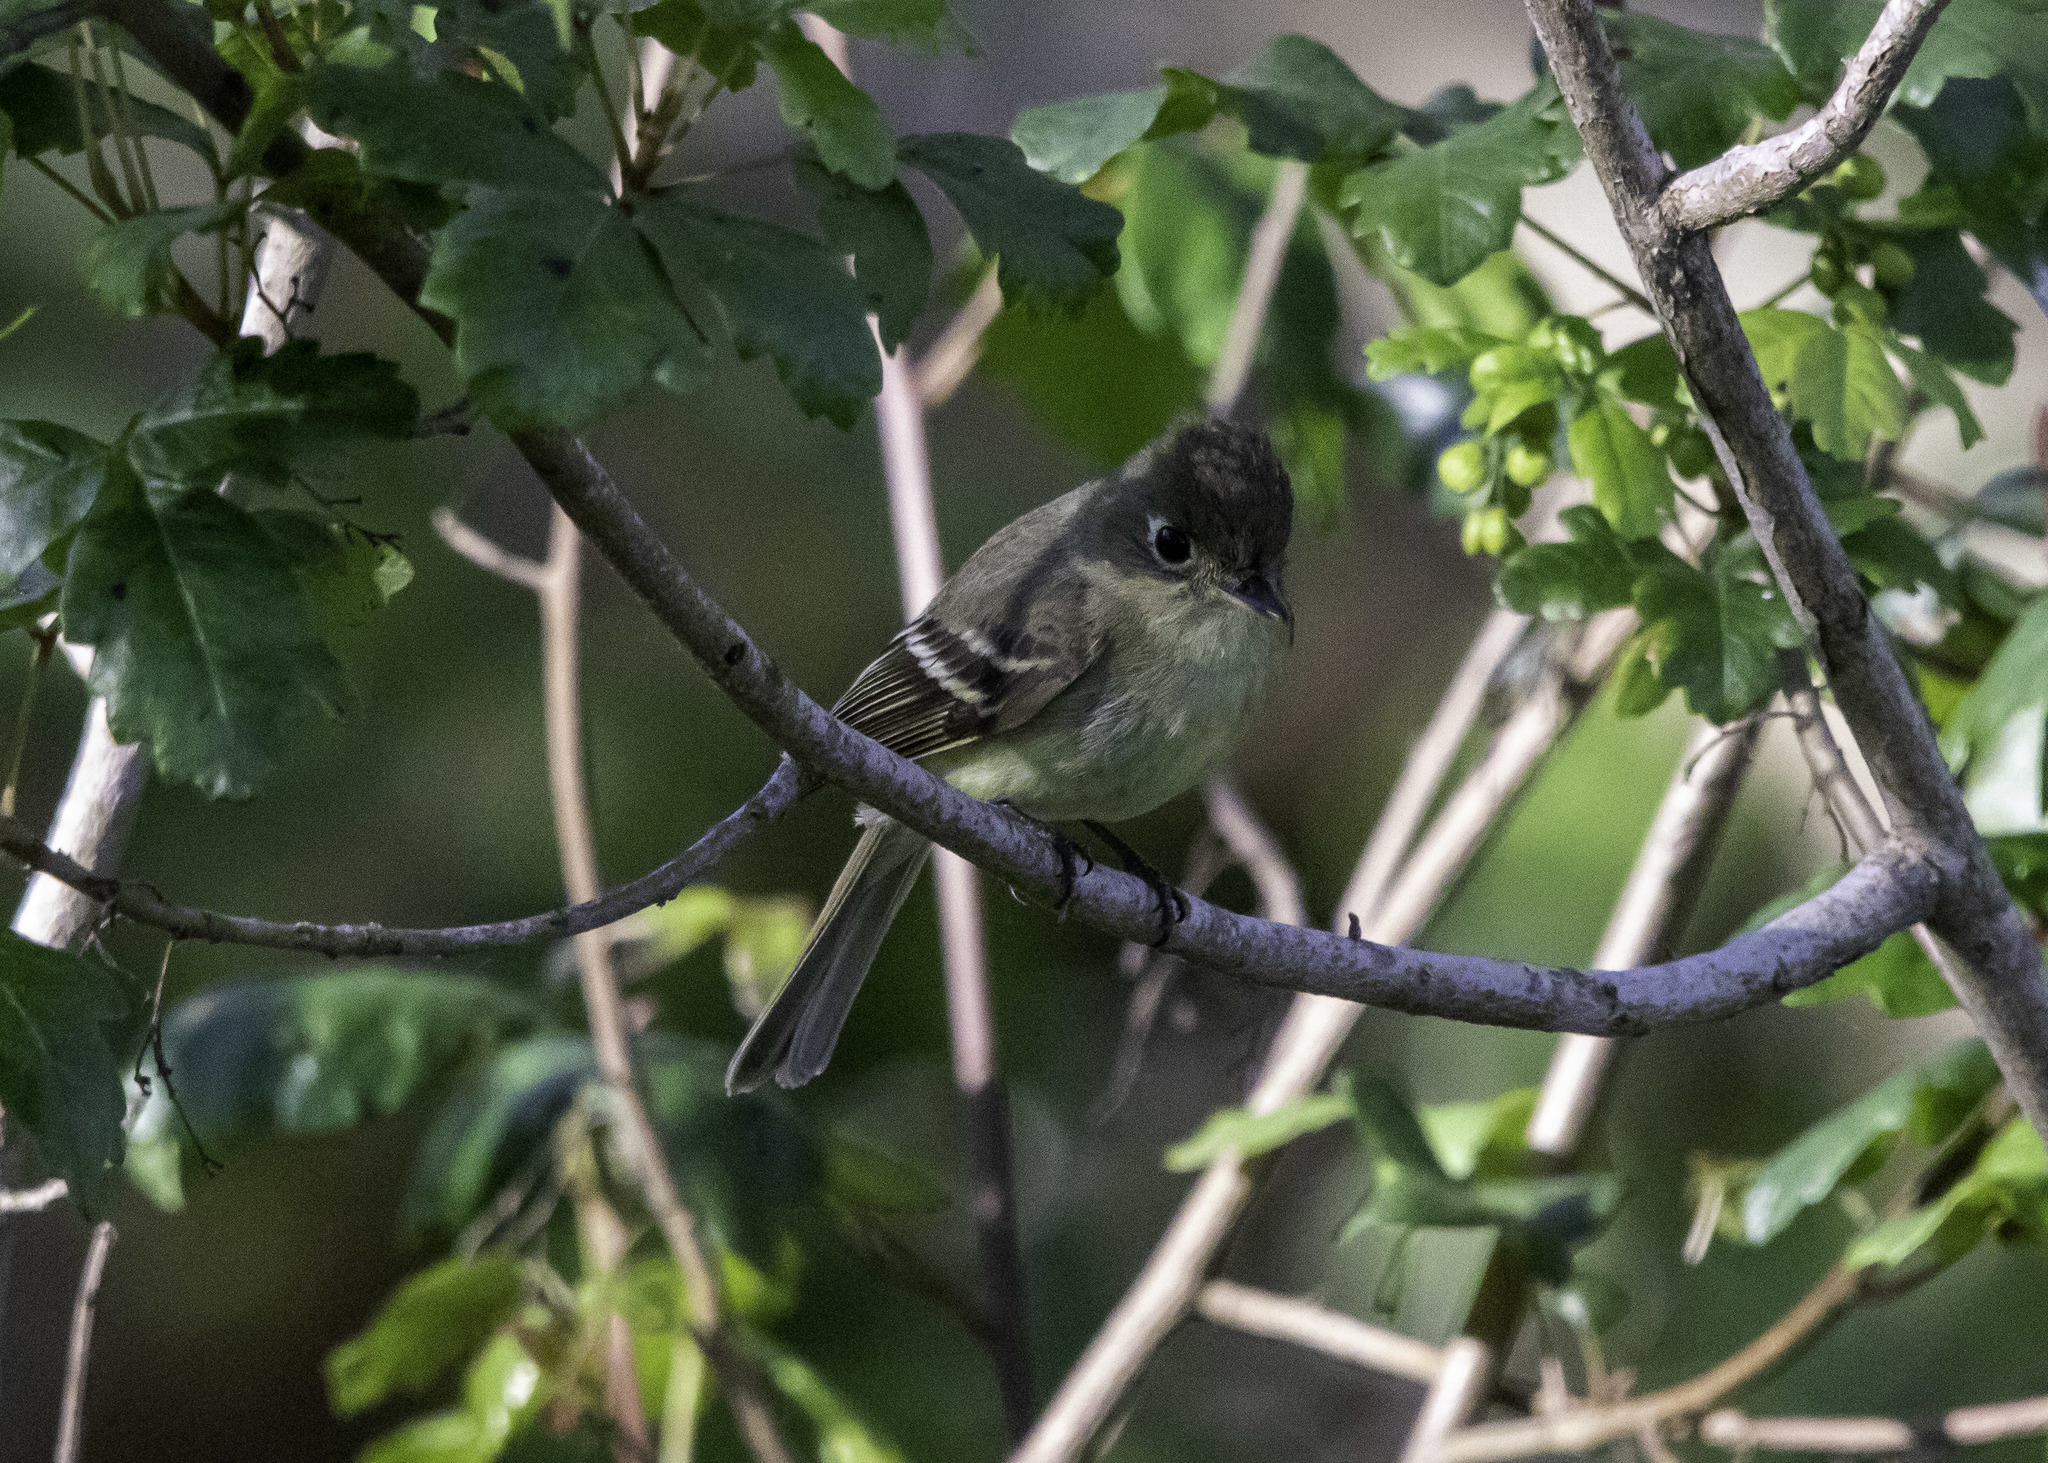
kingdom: Animalia
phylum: Chordata
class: Aves
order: Passeriformes
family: Tyrannidae
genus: Empidonax
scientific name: Empidonax difficilis
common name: Pacific-slope flycatcher
